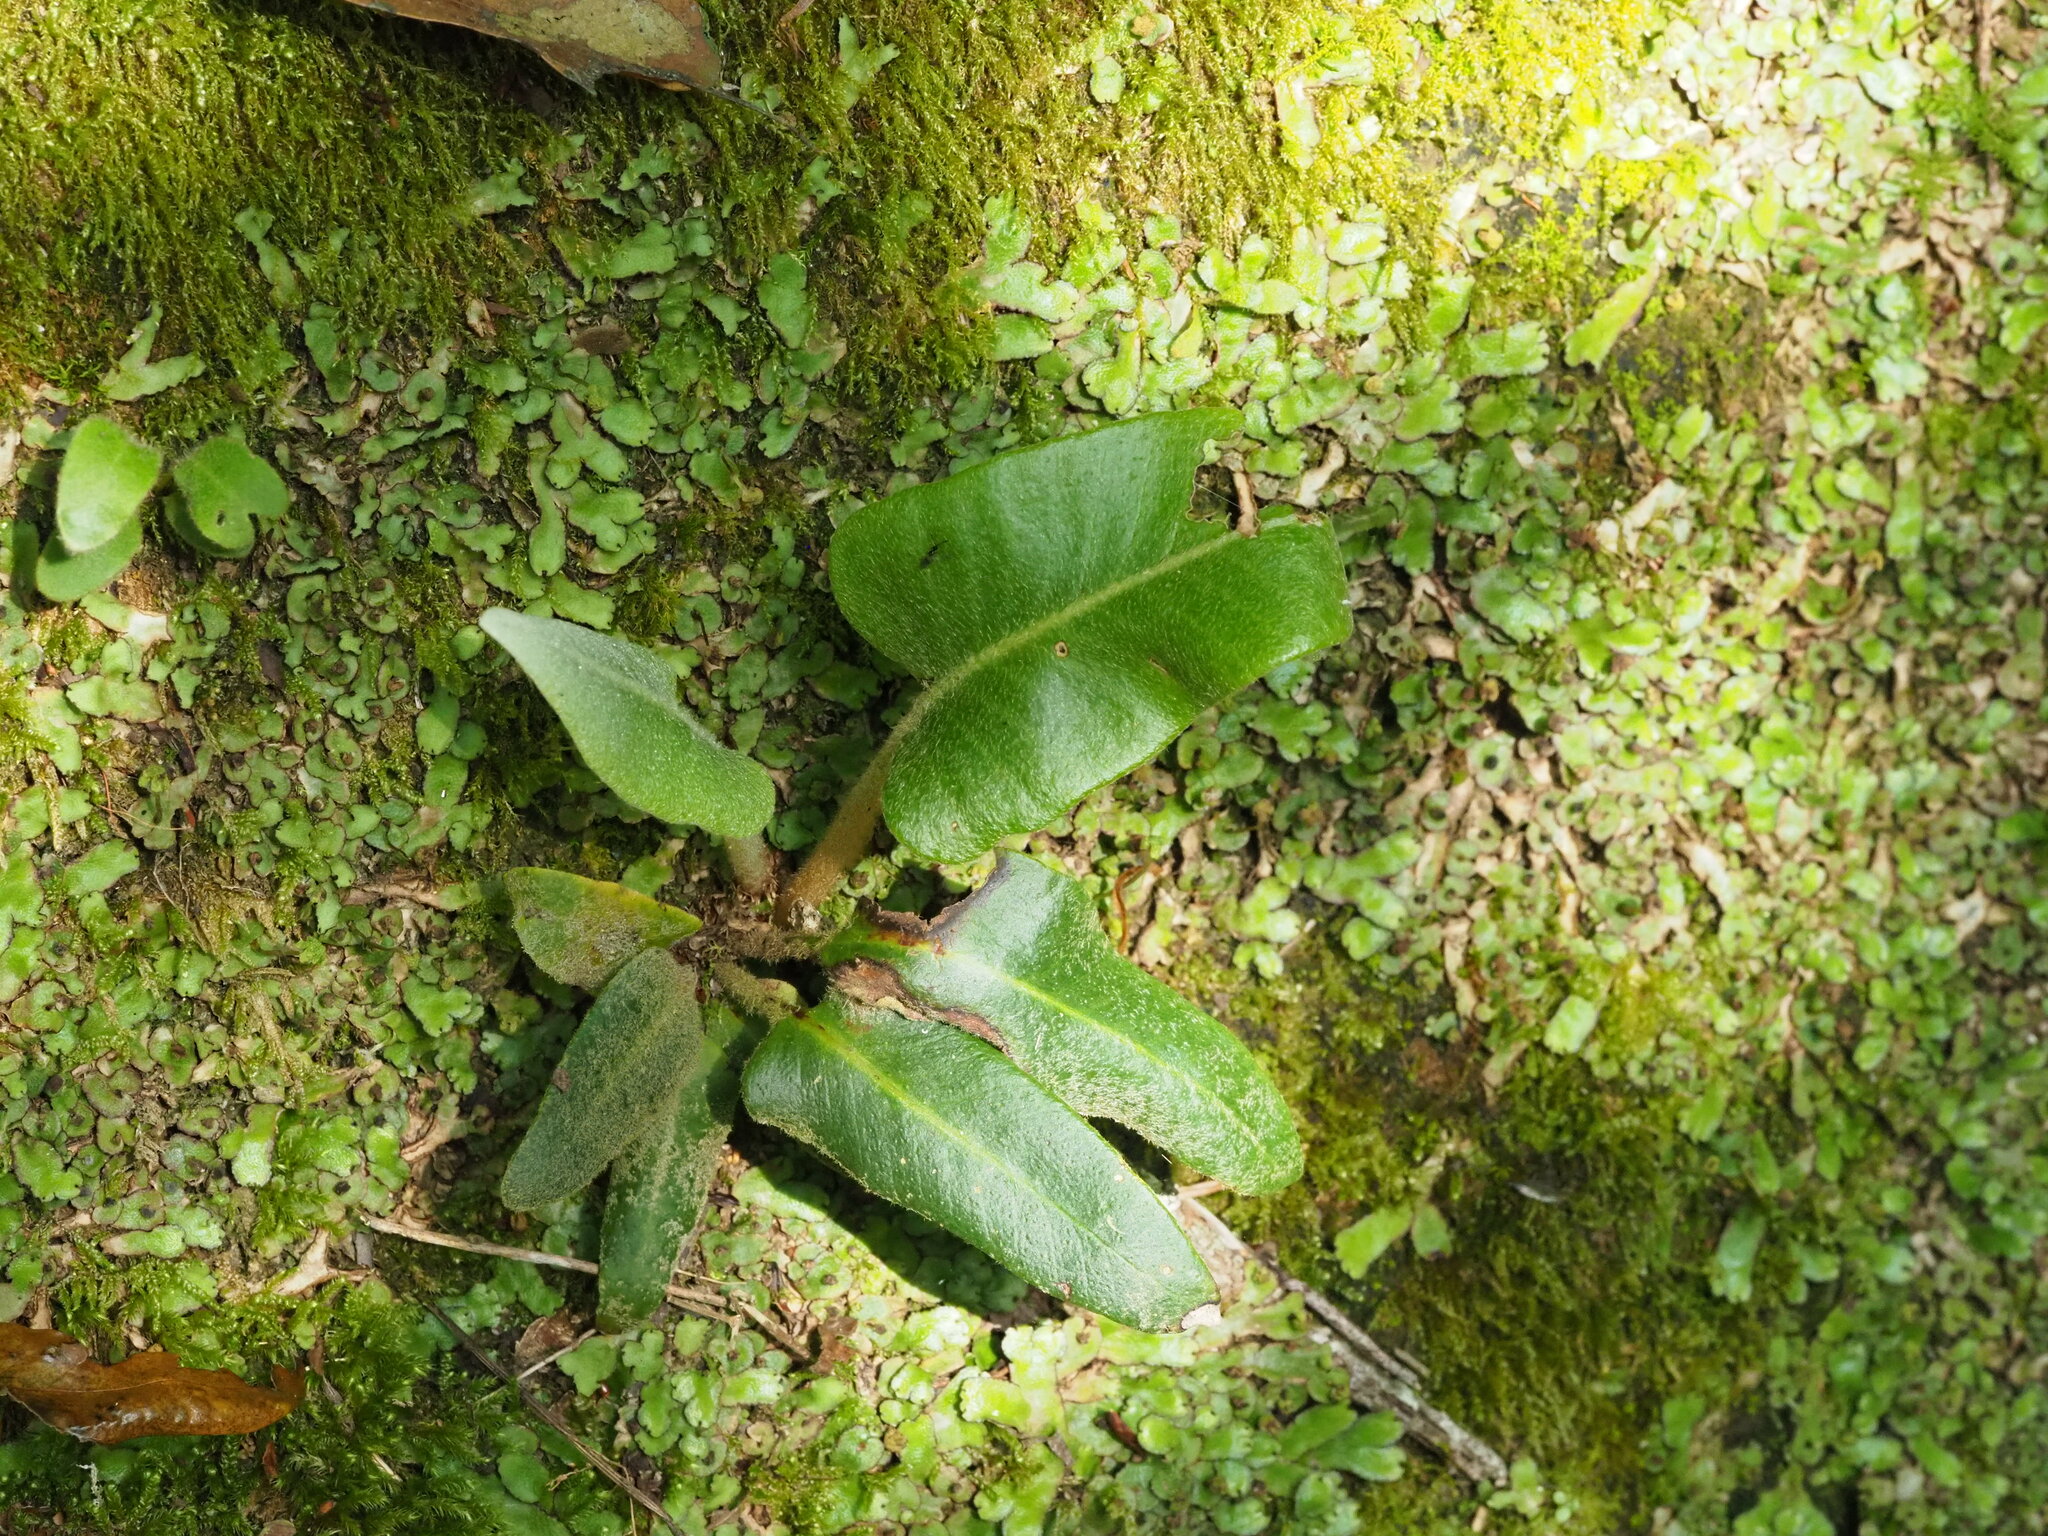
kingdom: Plantae
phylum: Tracheophyta
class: Polypodiopsida
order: Polypodiales
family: Polypodiaceae
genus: Pyrrosia
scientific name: Pyrrosia sheareri
